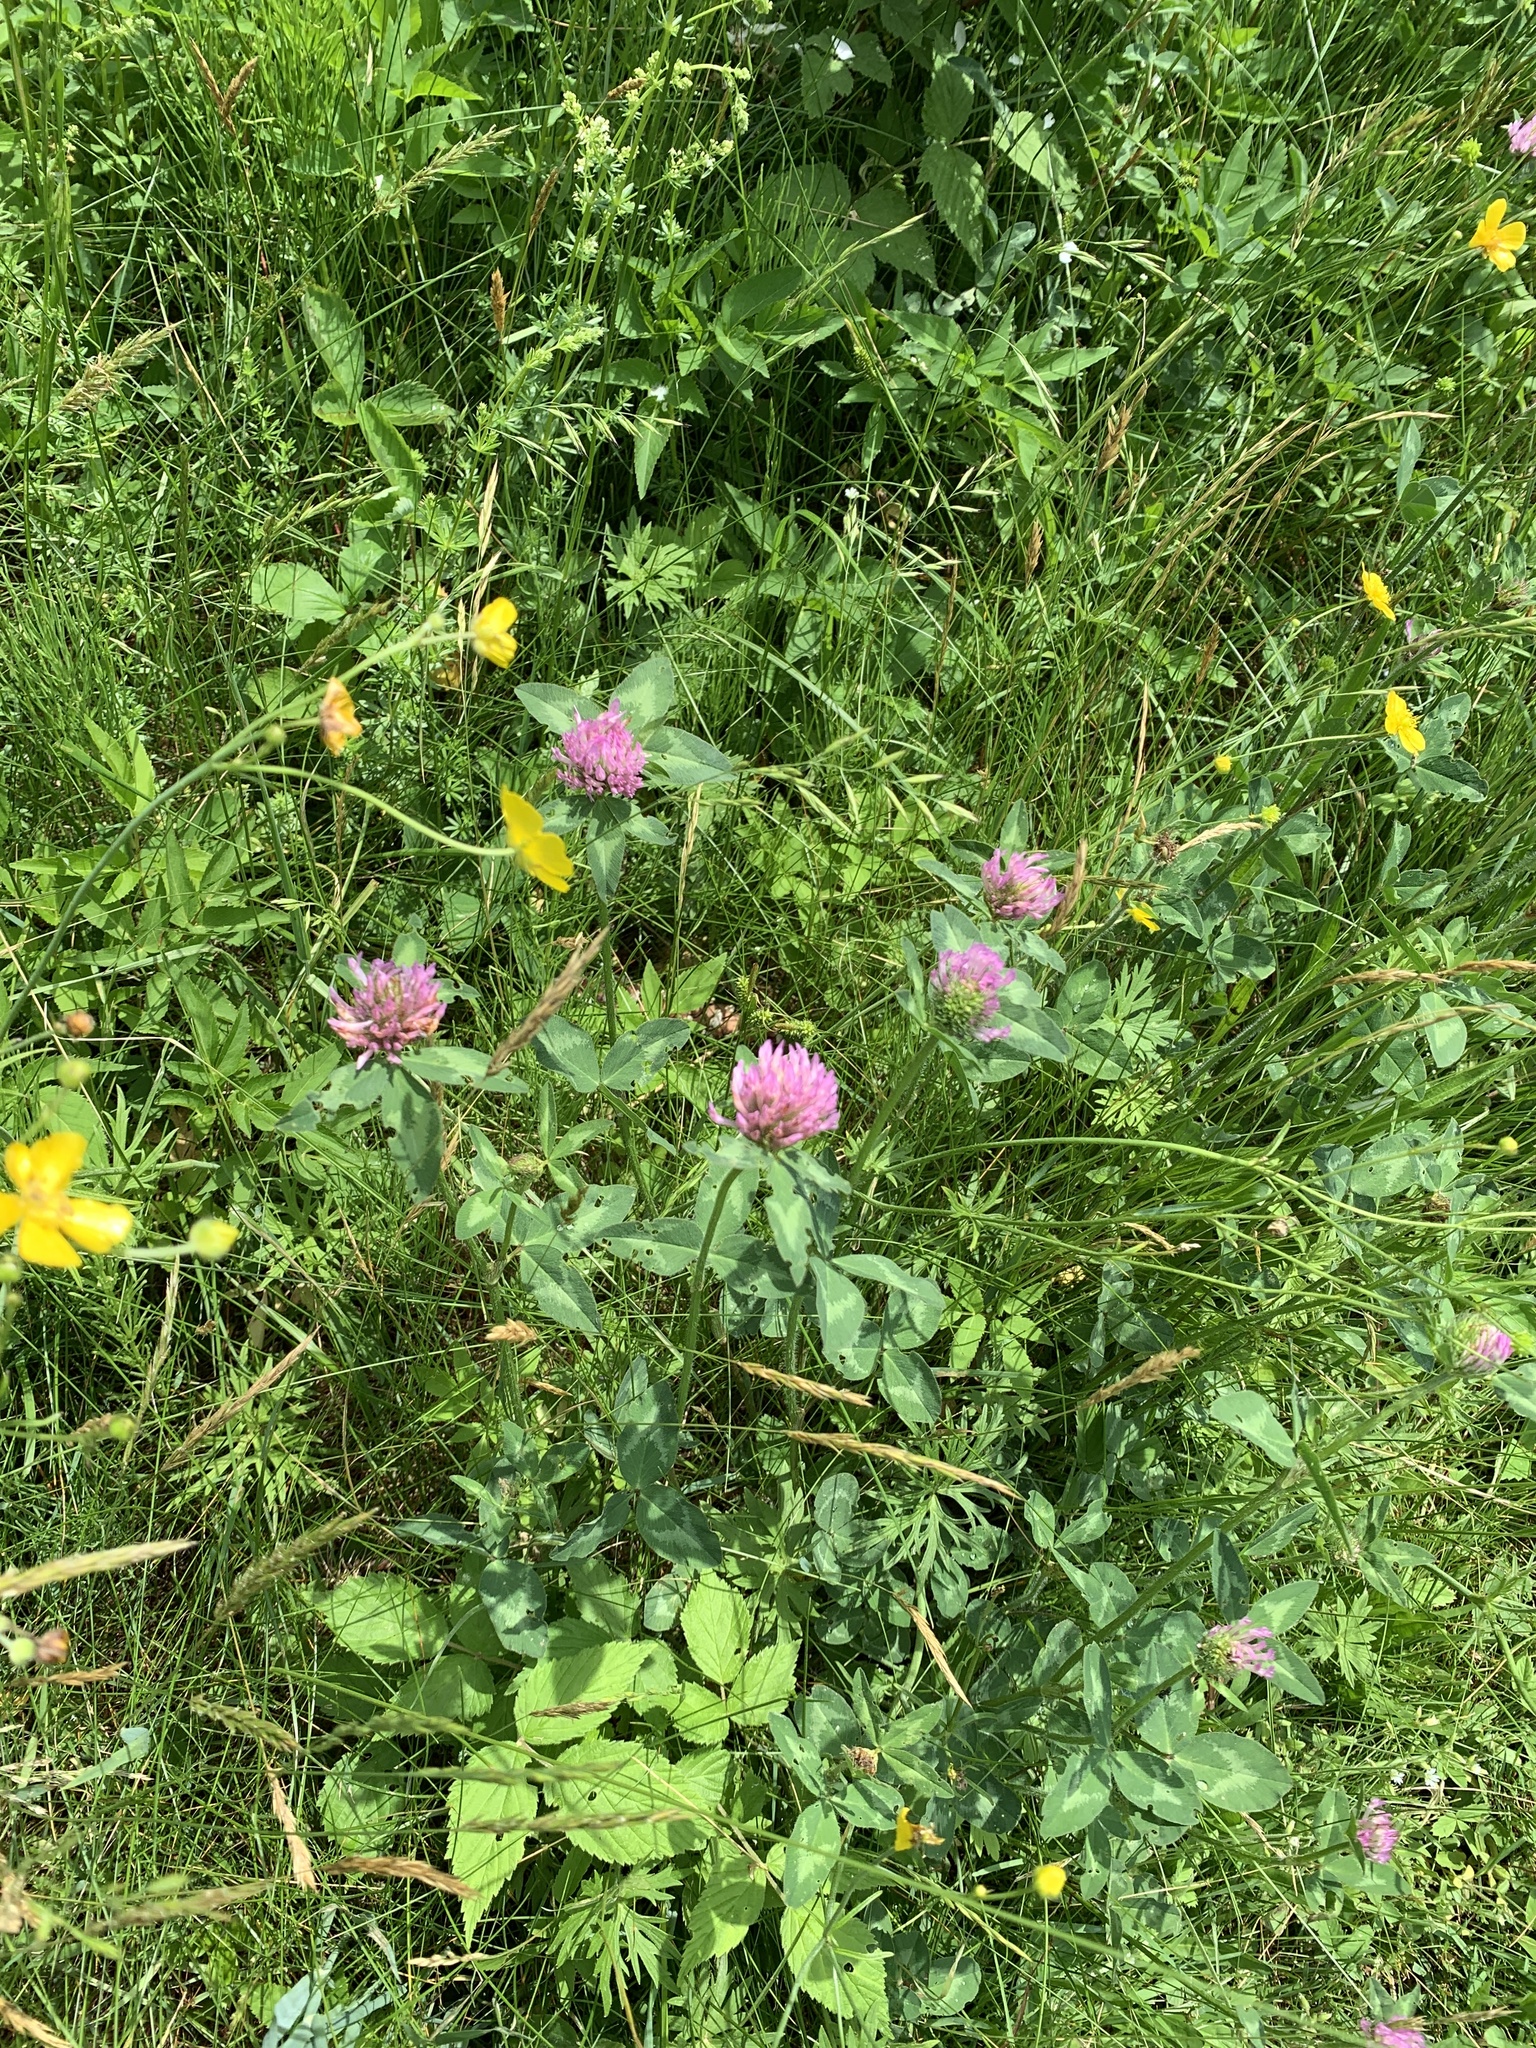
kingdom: Plantae
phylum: Tracheophyta
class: Magnoliopsida
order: Fabales
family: Fabaceae
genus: Trifolium
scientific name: Trifolium pratense
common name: Red clover
